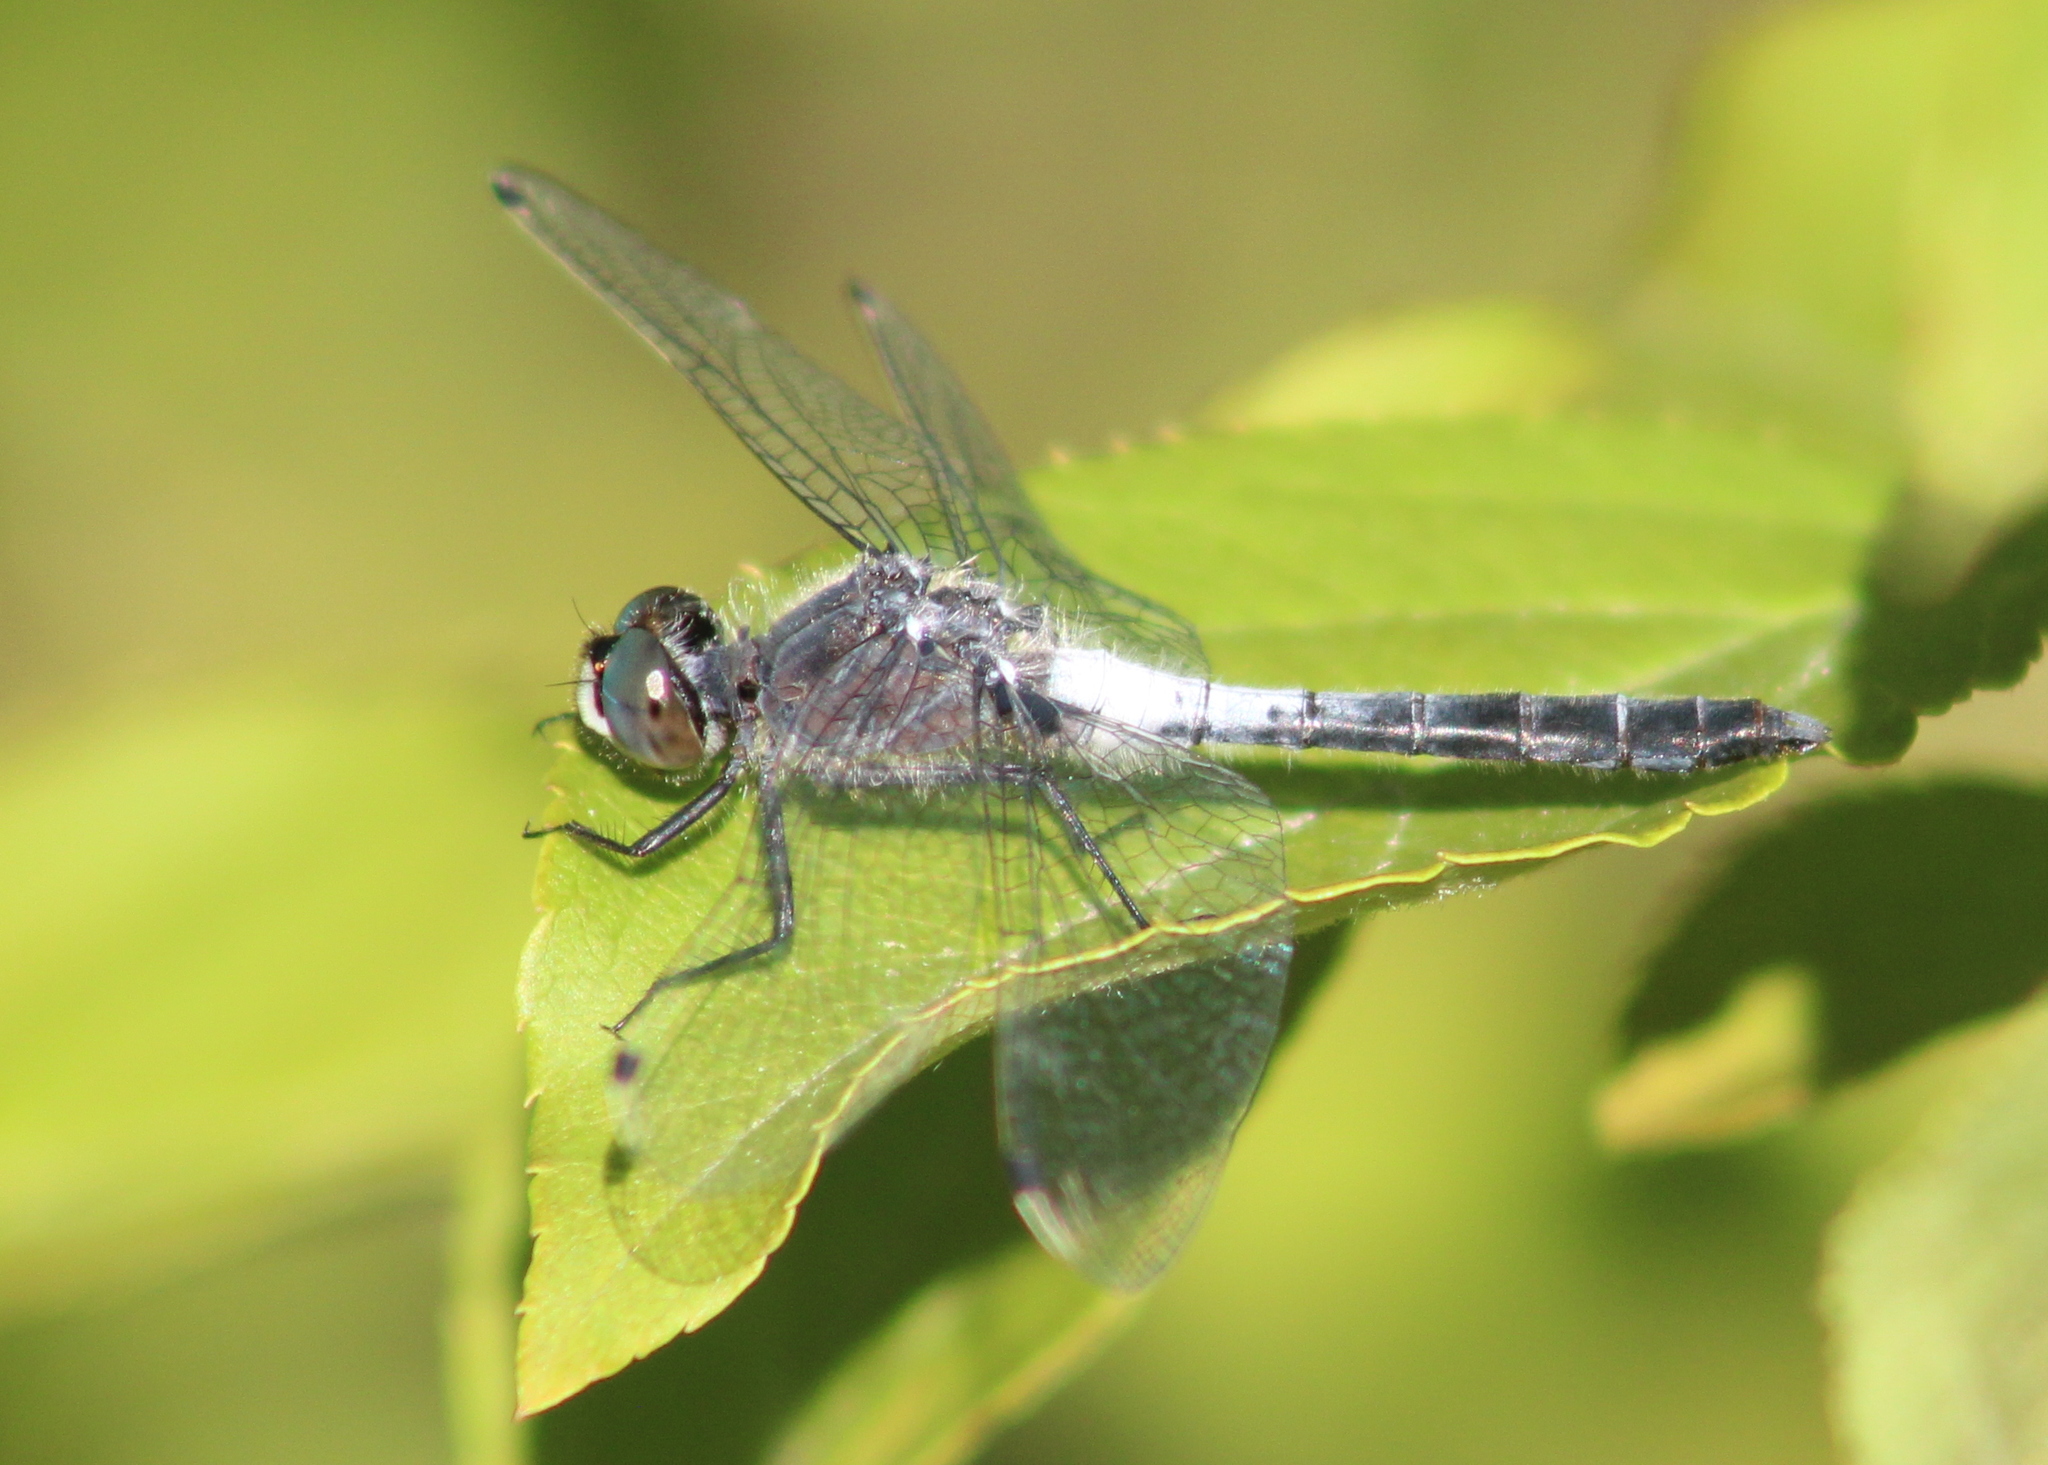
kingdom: Animalia
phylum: Arthropoda
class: Insecta
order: Odonata
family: Libellulidae
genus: Leucorrhinia
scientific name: Leucorrhinia frigida
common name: Frosted whiteface
